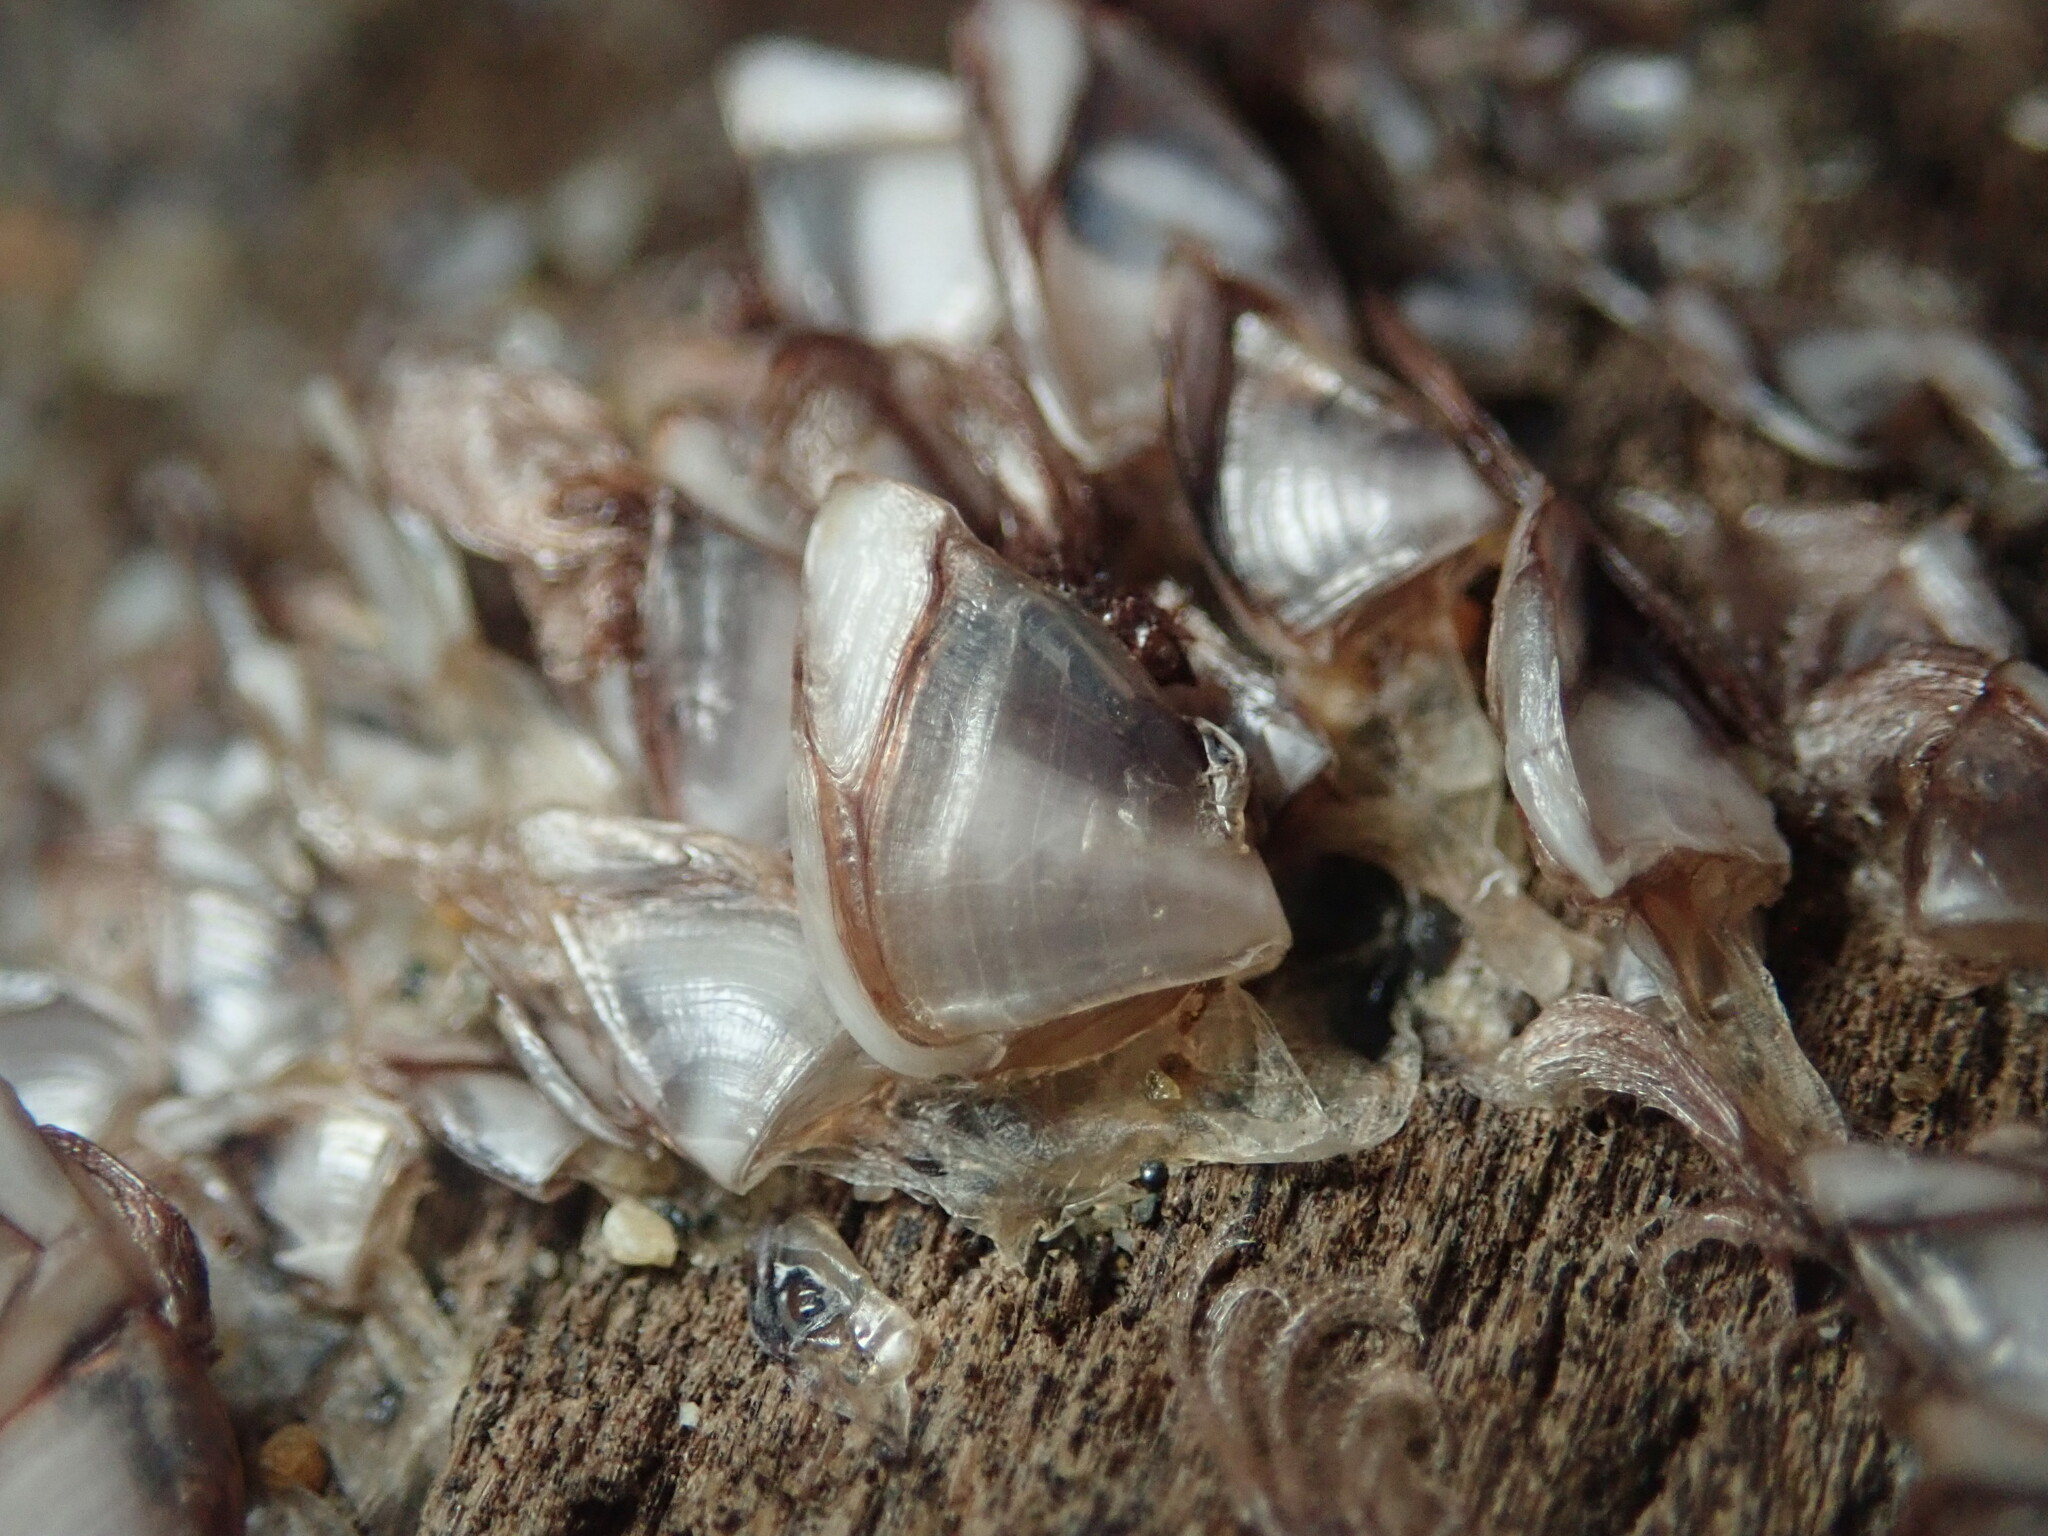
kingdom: Animalia
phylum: Arthropoda
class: Maxillopoda
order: Pedunculata
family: Lepadidae
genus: Lepas
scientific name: Lepas pacifica
